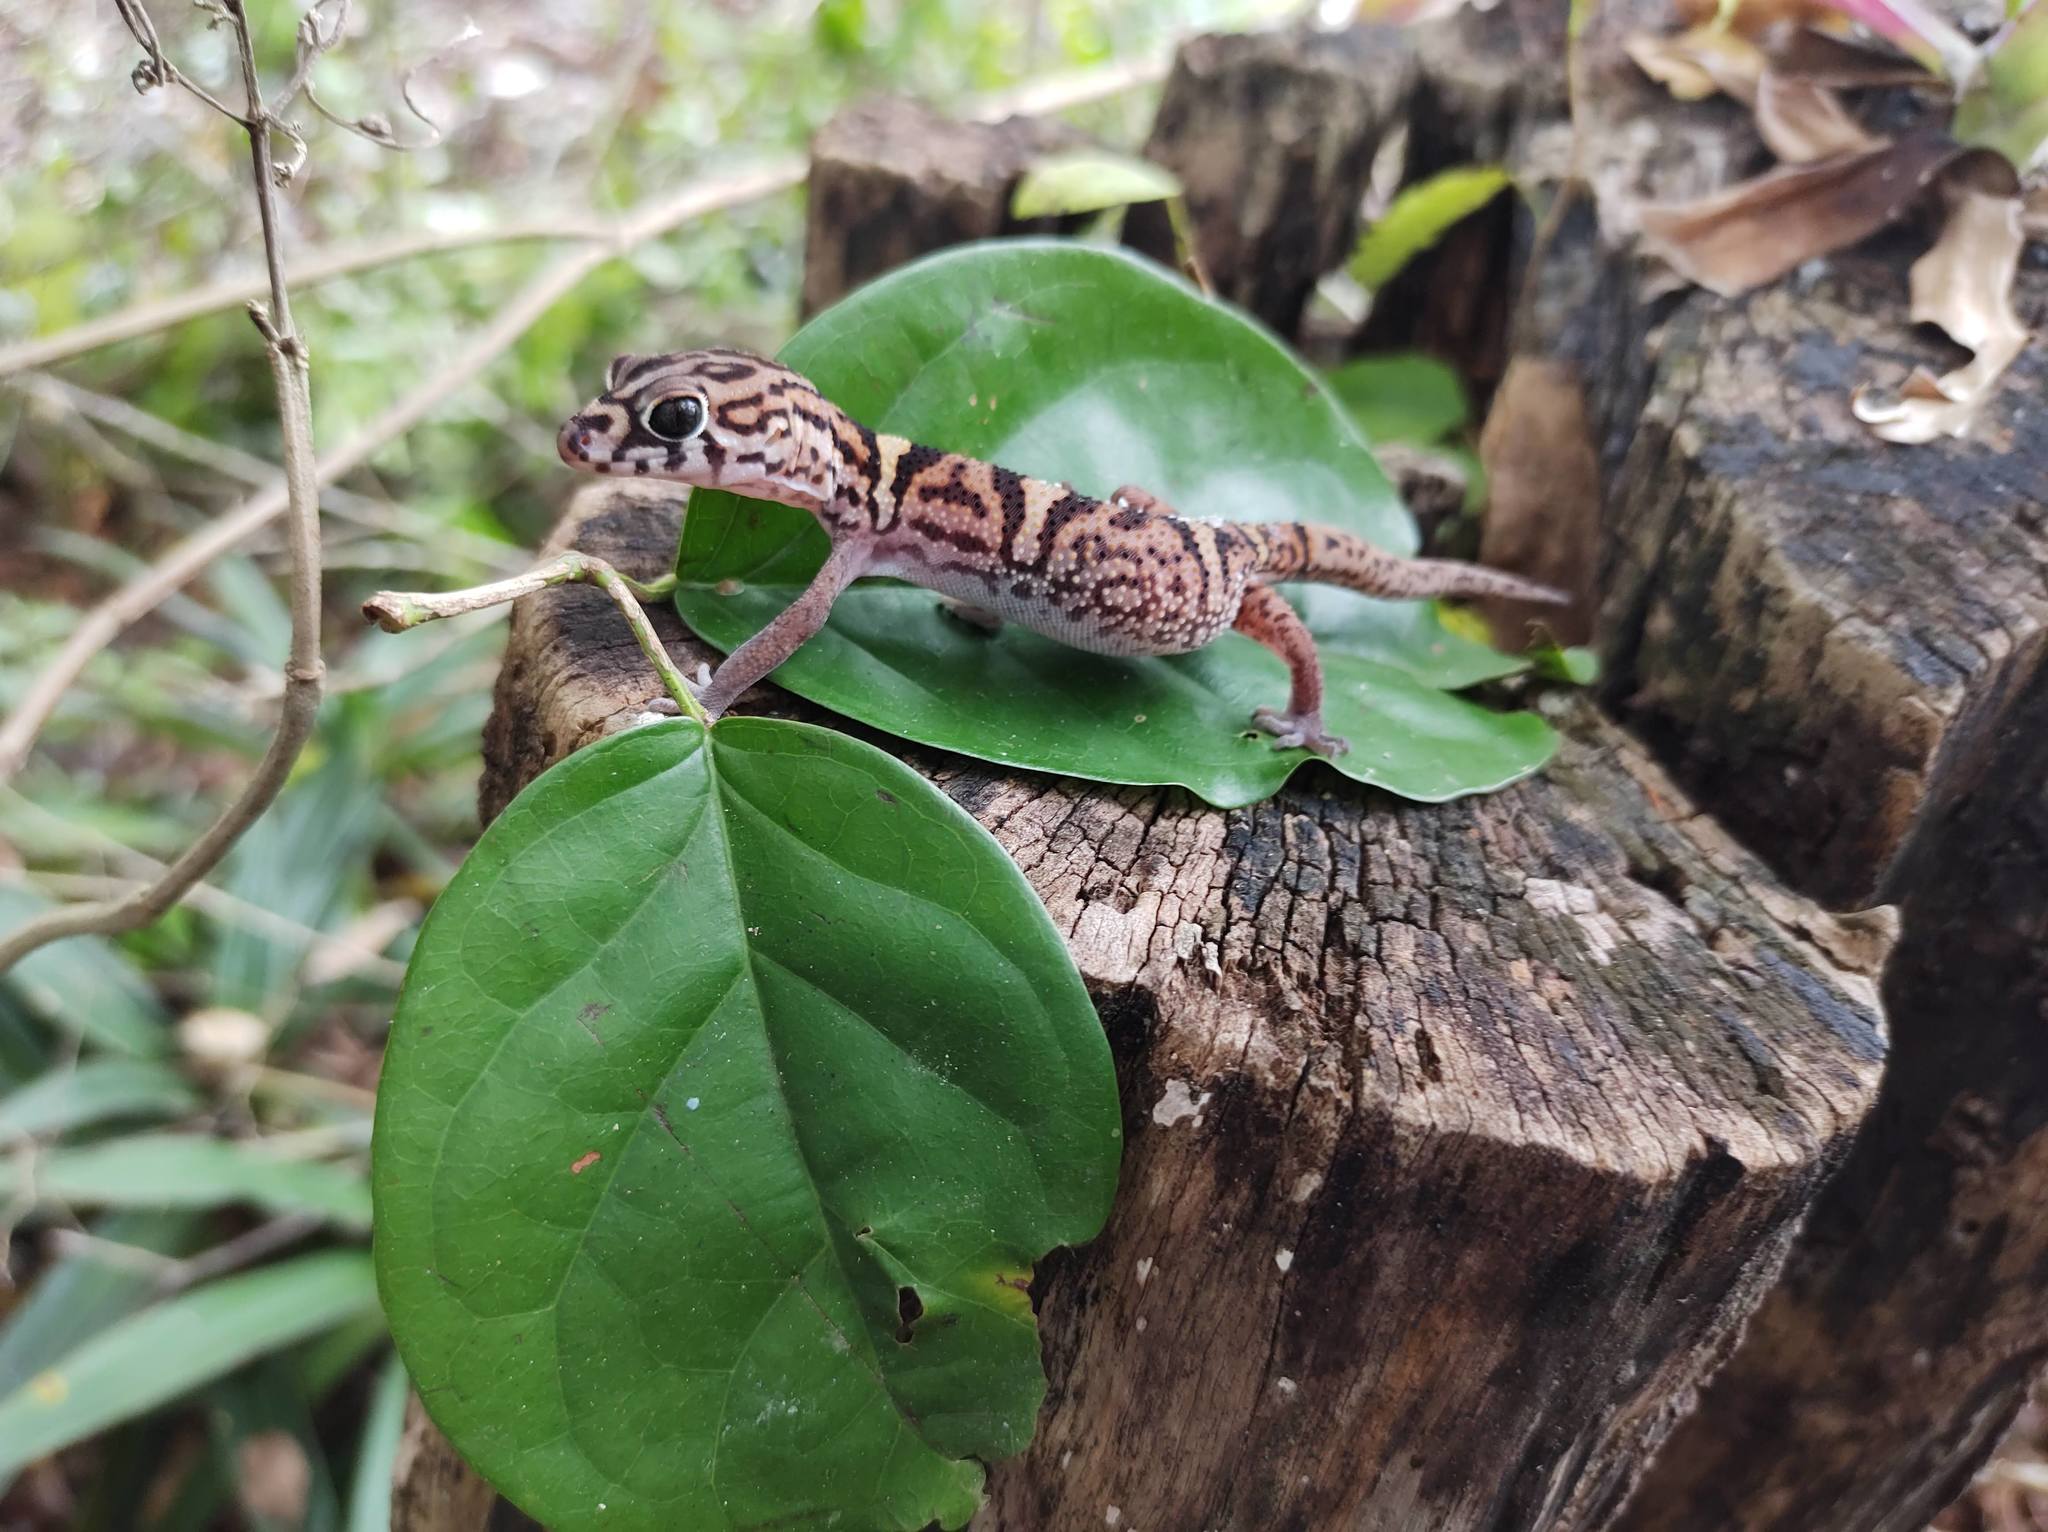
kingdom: Animalia
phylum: Chordata
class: Squamata
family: Eublepharidae
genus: Coleonyx
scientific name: Coleonyx elegans
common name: Yucatan banded gecko
